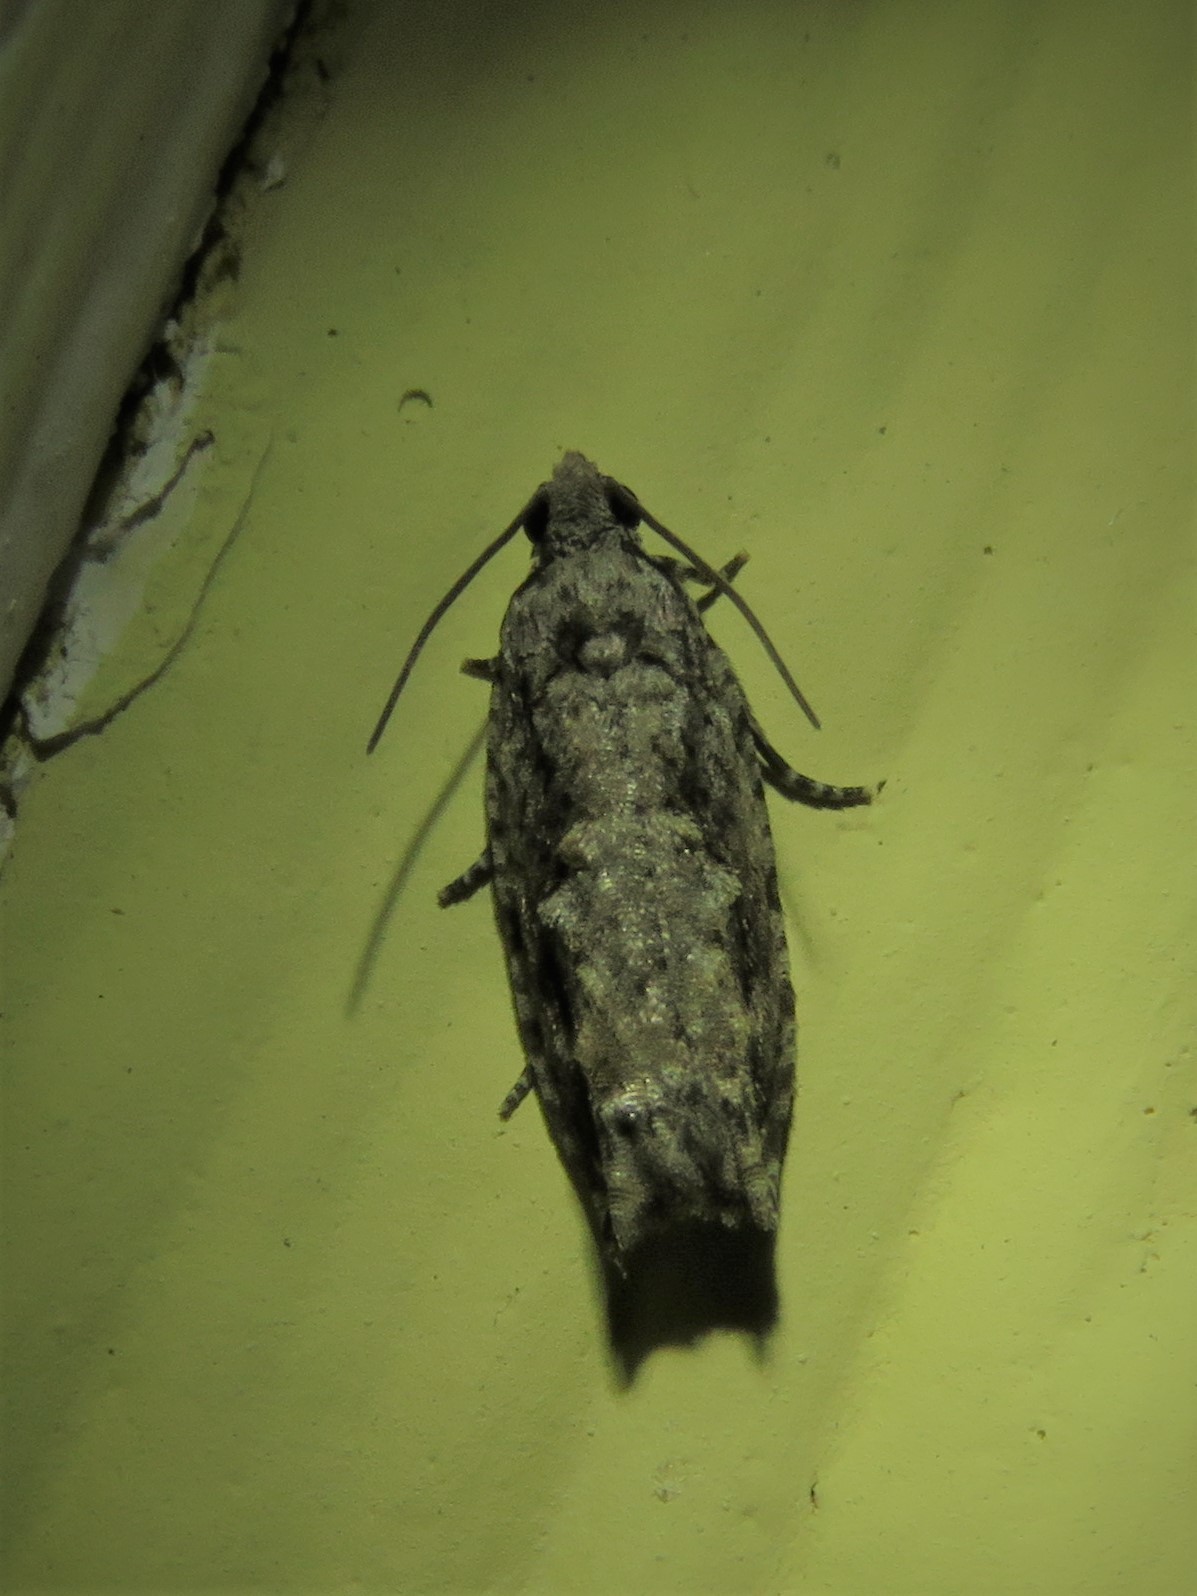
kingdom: Animalia
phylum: Arthropoda
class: Insecta
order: Lepidoptera
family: Tortricidae
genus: Gretchena
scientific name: Gretchena bolliana
